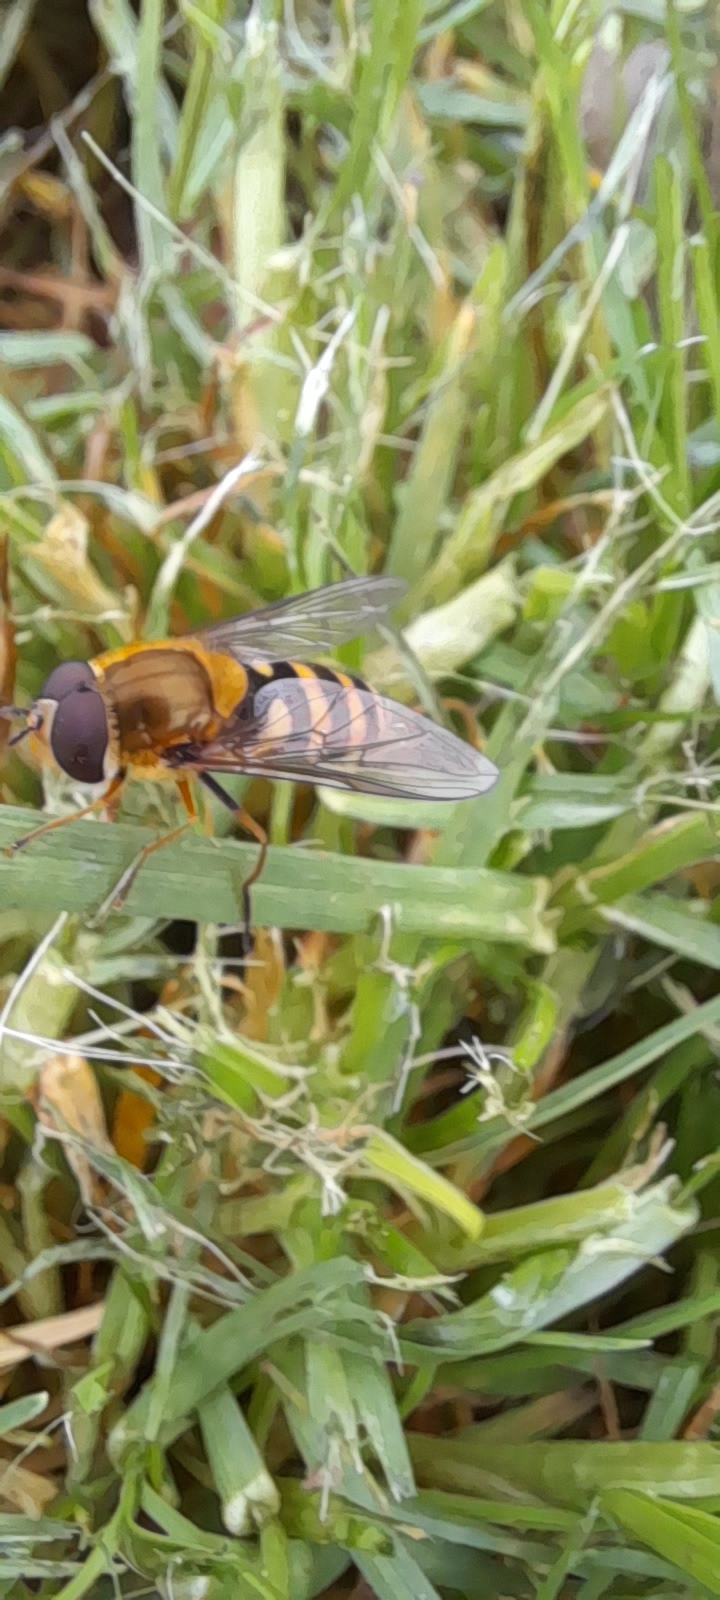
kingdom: Animalia
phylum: Arthropoda
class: Insecta
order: Diptera
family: Syrphidae
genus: Syrphus
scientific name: Syrphus
